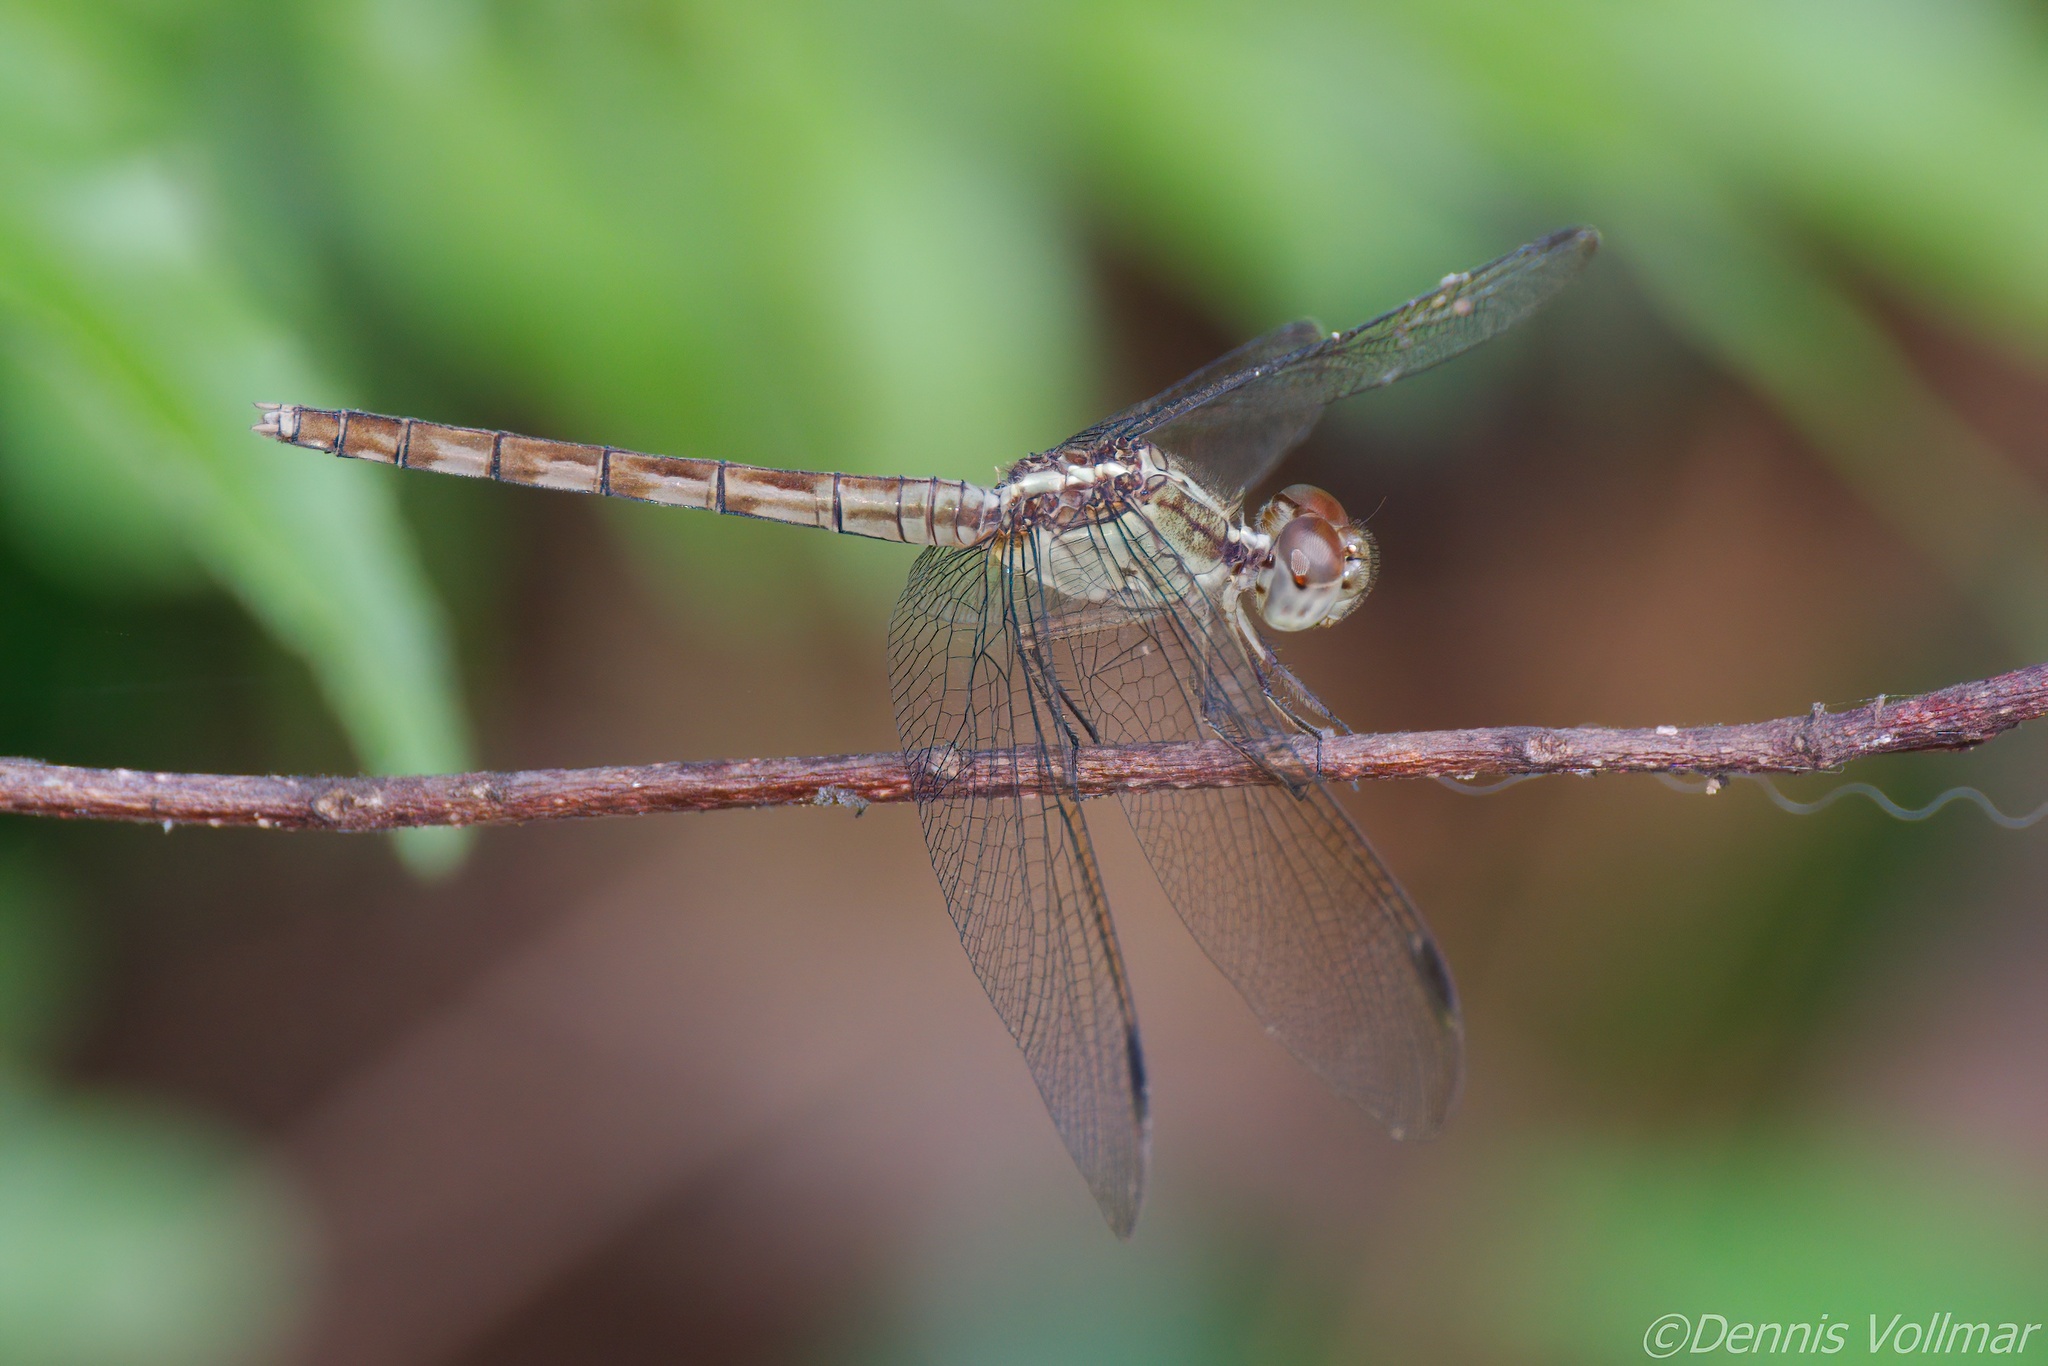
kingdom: Animalia
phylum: Arthropoda
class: Insecta
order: Odonata
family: Libellulidae
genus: Erythrodiplax
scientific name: Erythrodiplax umbrata
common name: Band-winged dragonlet
